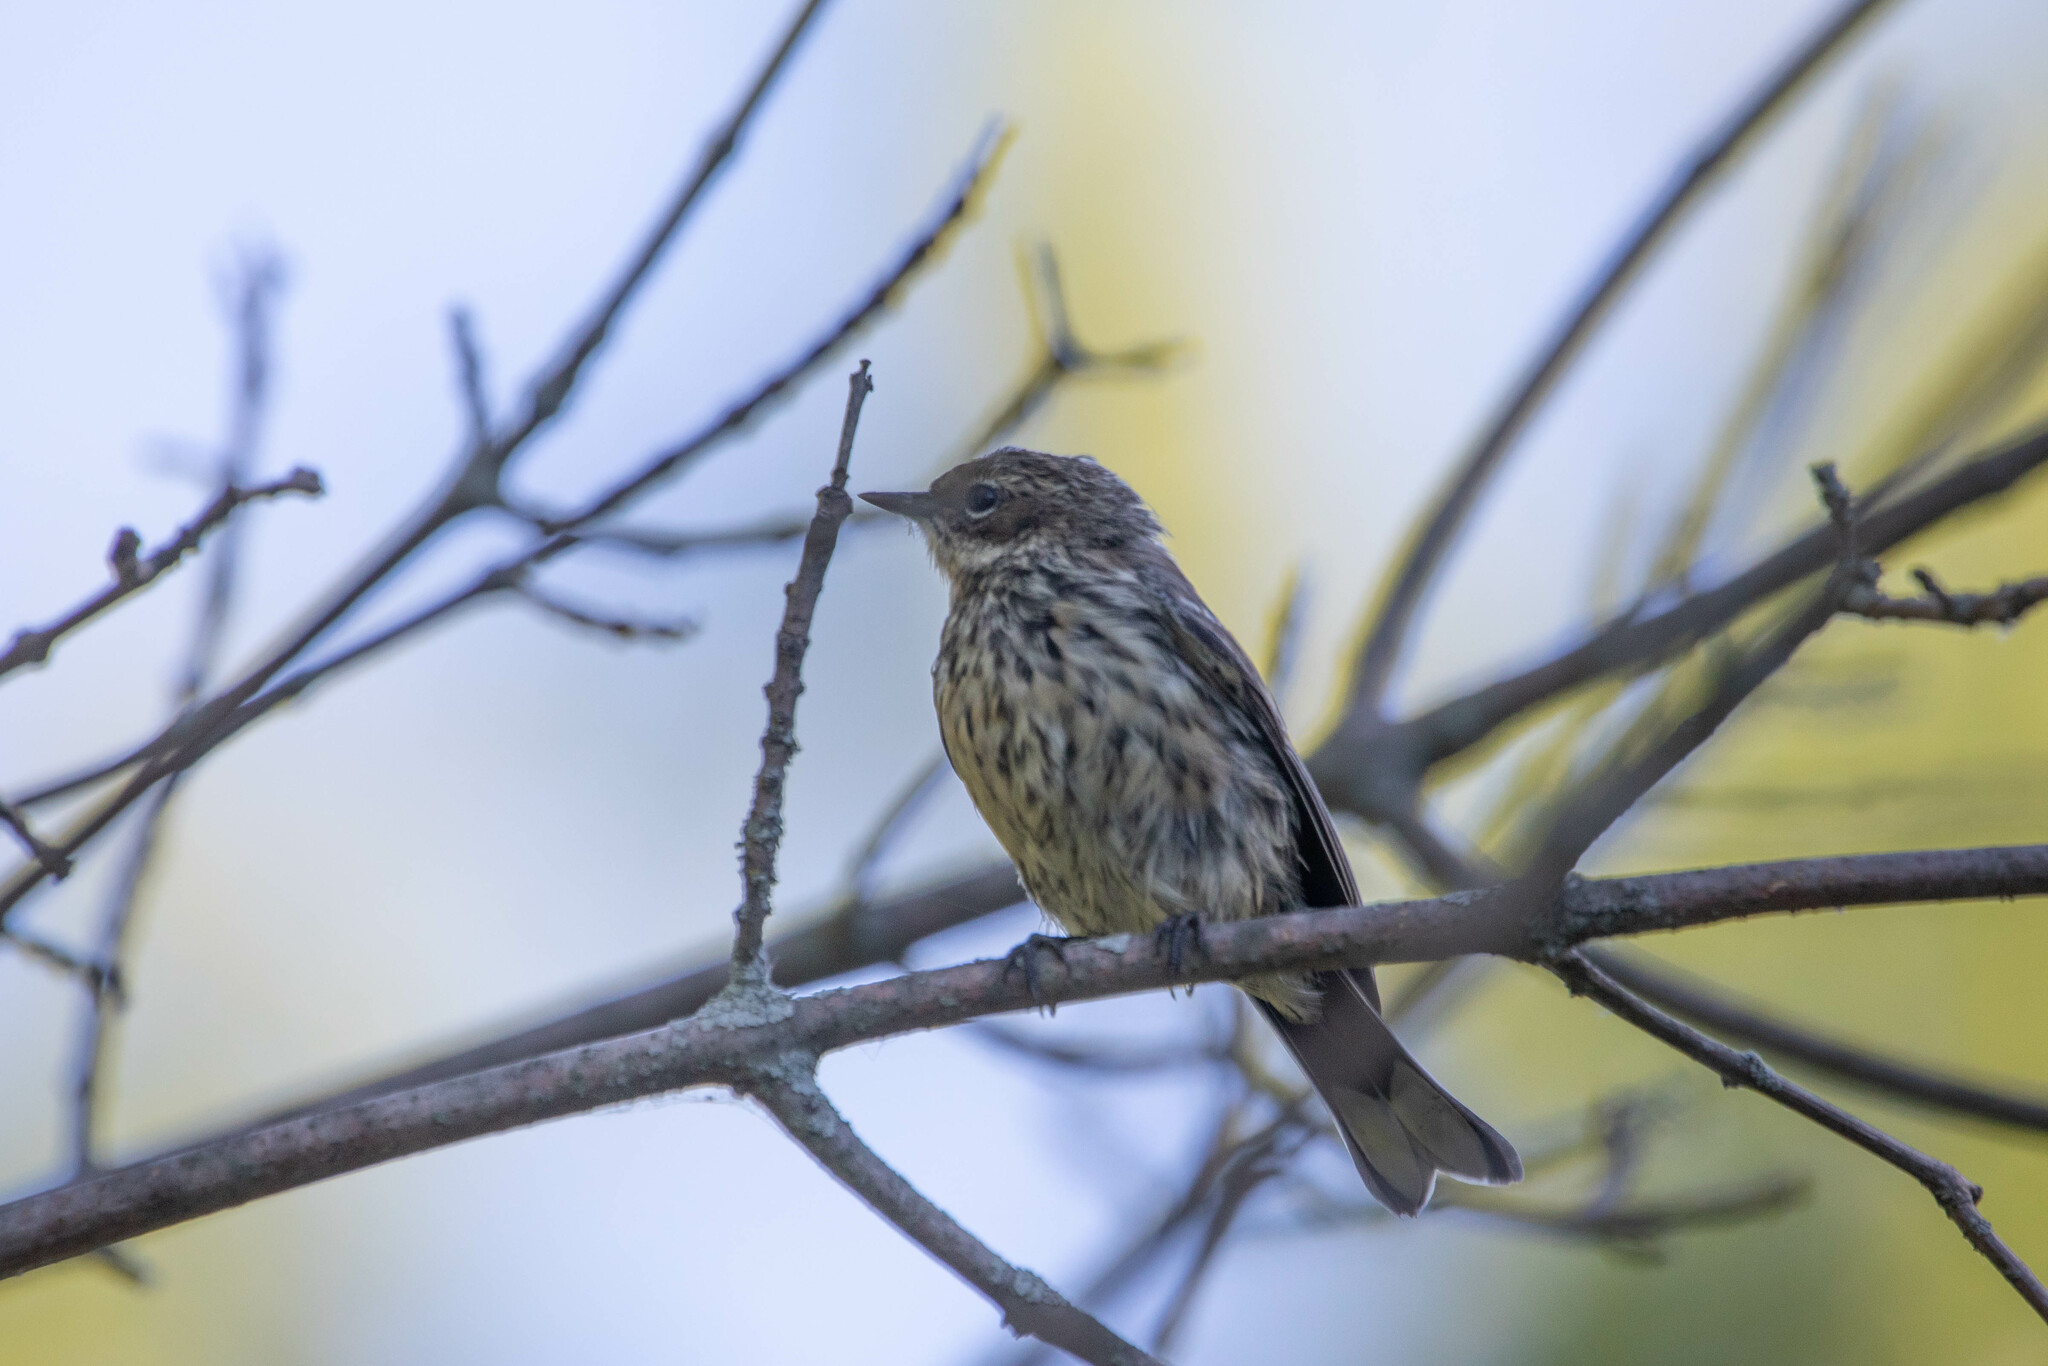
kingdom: Animalia
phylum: Chordata
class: Aves
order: Passeriformes
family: Parulidae
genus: Setophaga
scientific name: Setophaga coronata
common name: Myrtle warbler
